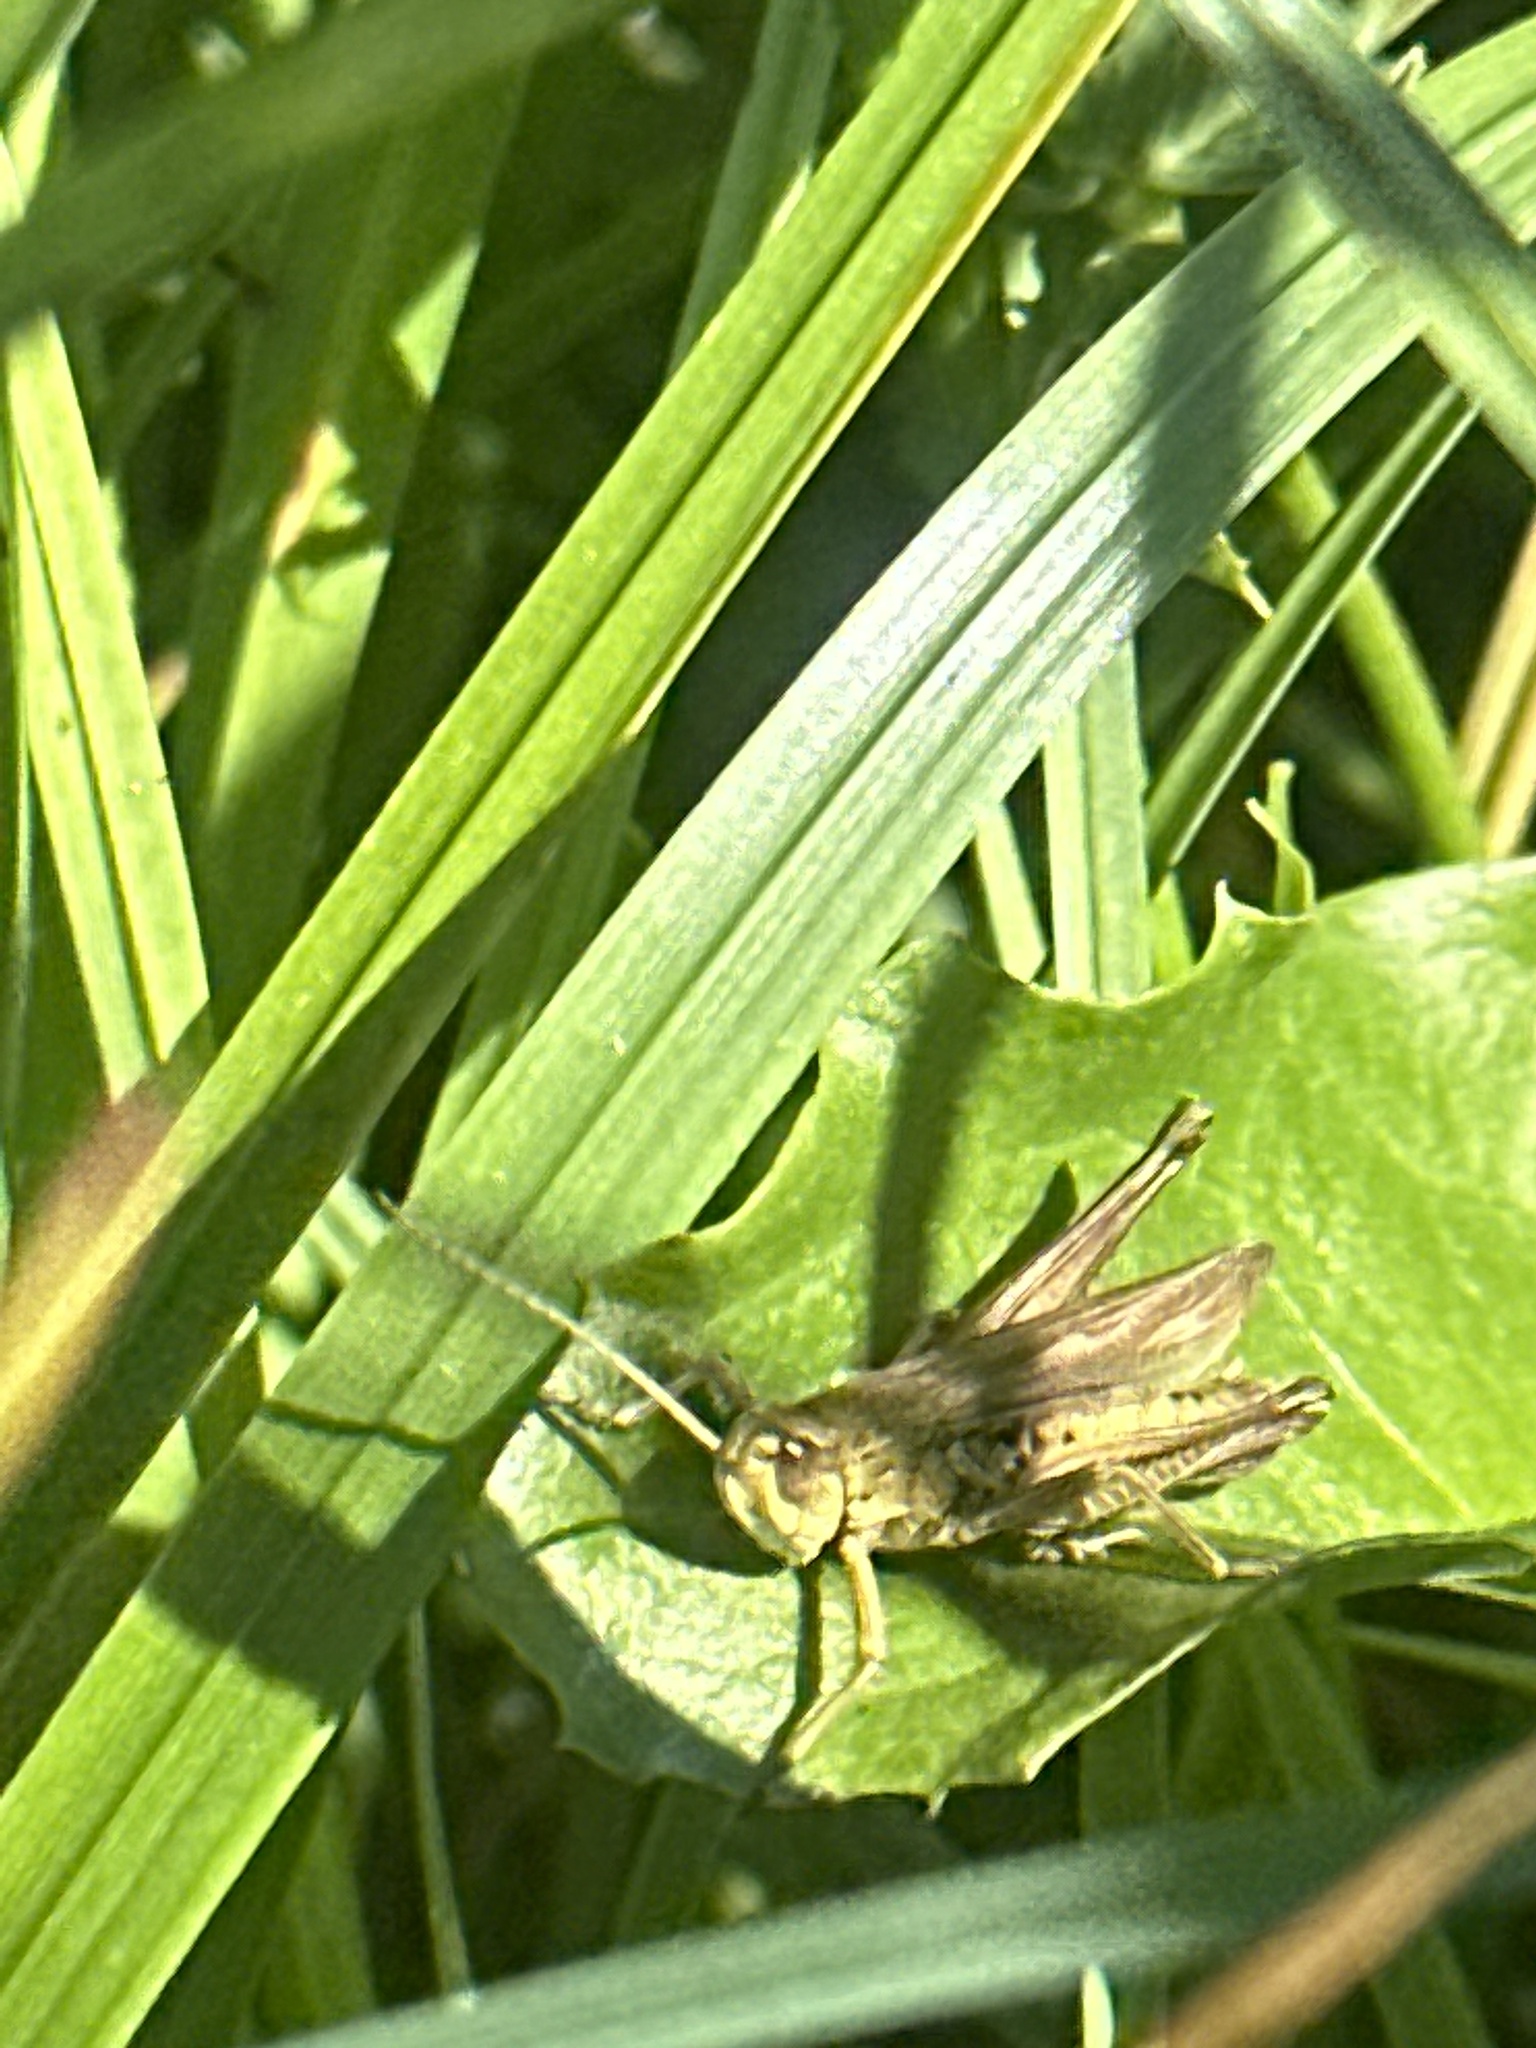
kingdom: Animalia
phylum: Arthropoda
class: Insecta
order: Orthoptera
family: Acrididae
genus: Chorthippus
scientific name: Chorthippus albomarginatus
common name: Lesser marsh grasshopper
